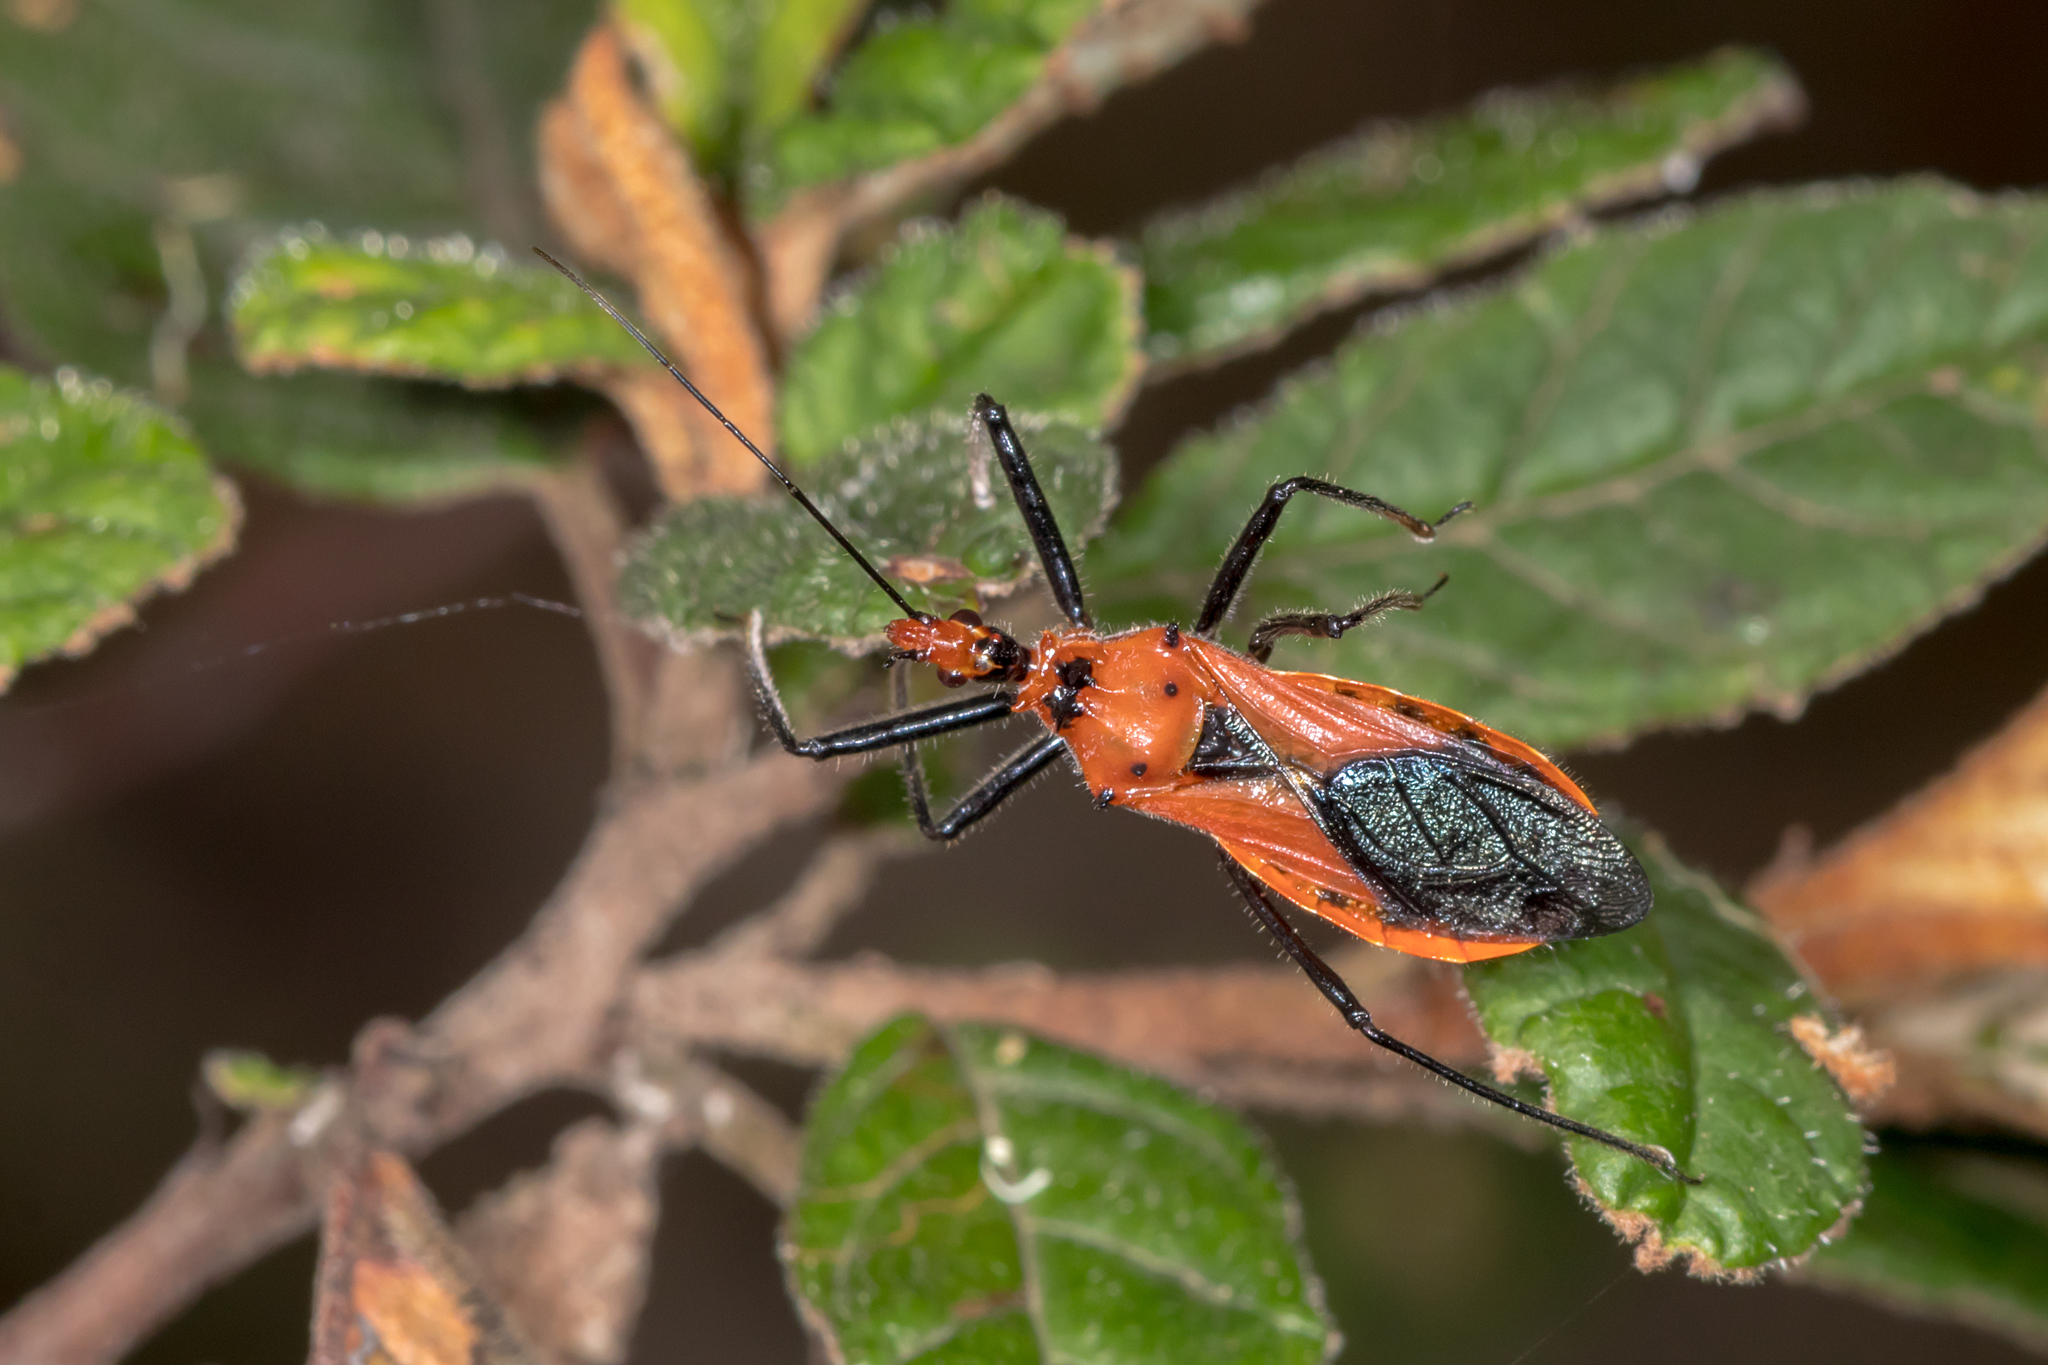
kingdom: Animalia
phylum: Arthropoda
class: Insecta
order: Hemiptera
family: Reduviidae
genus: Gminatus
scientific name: Gminatus australis
